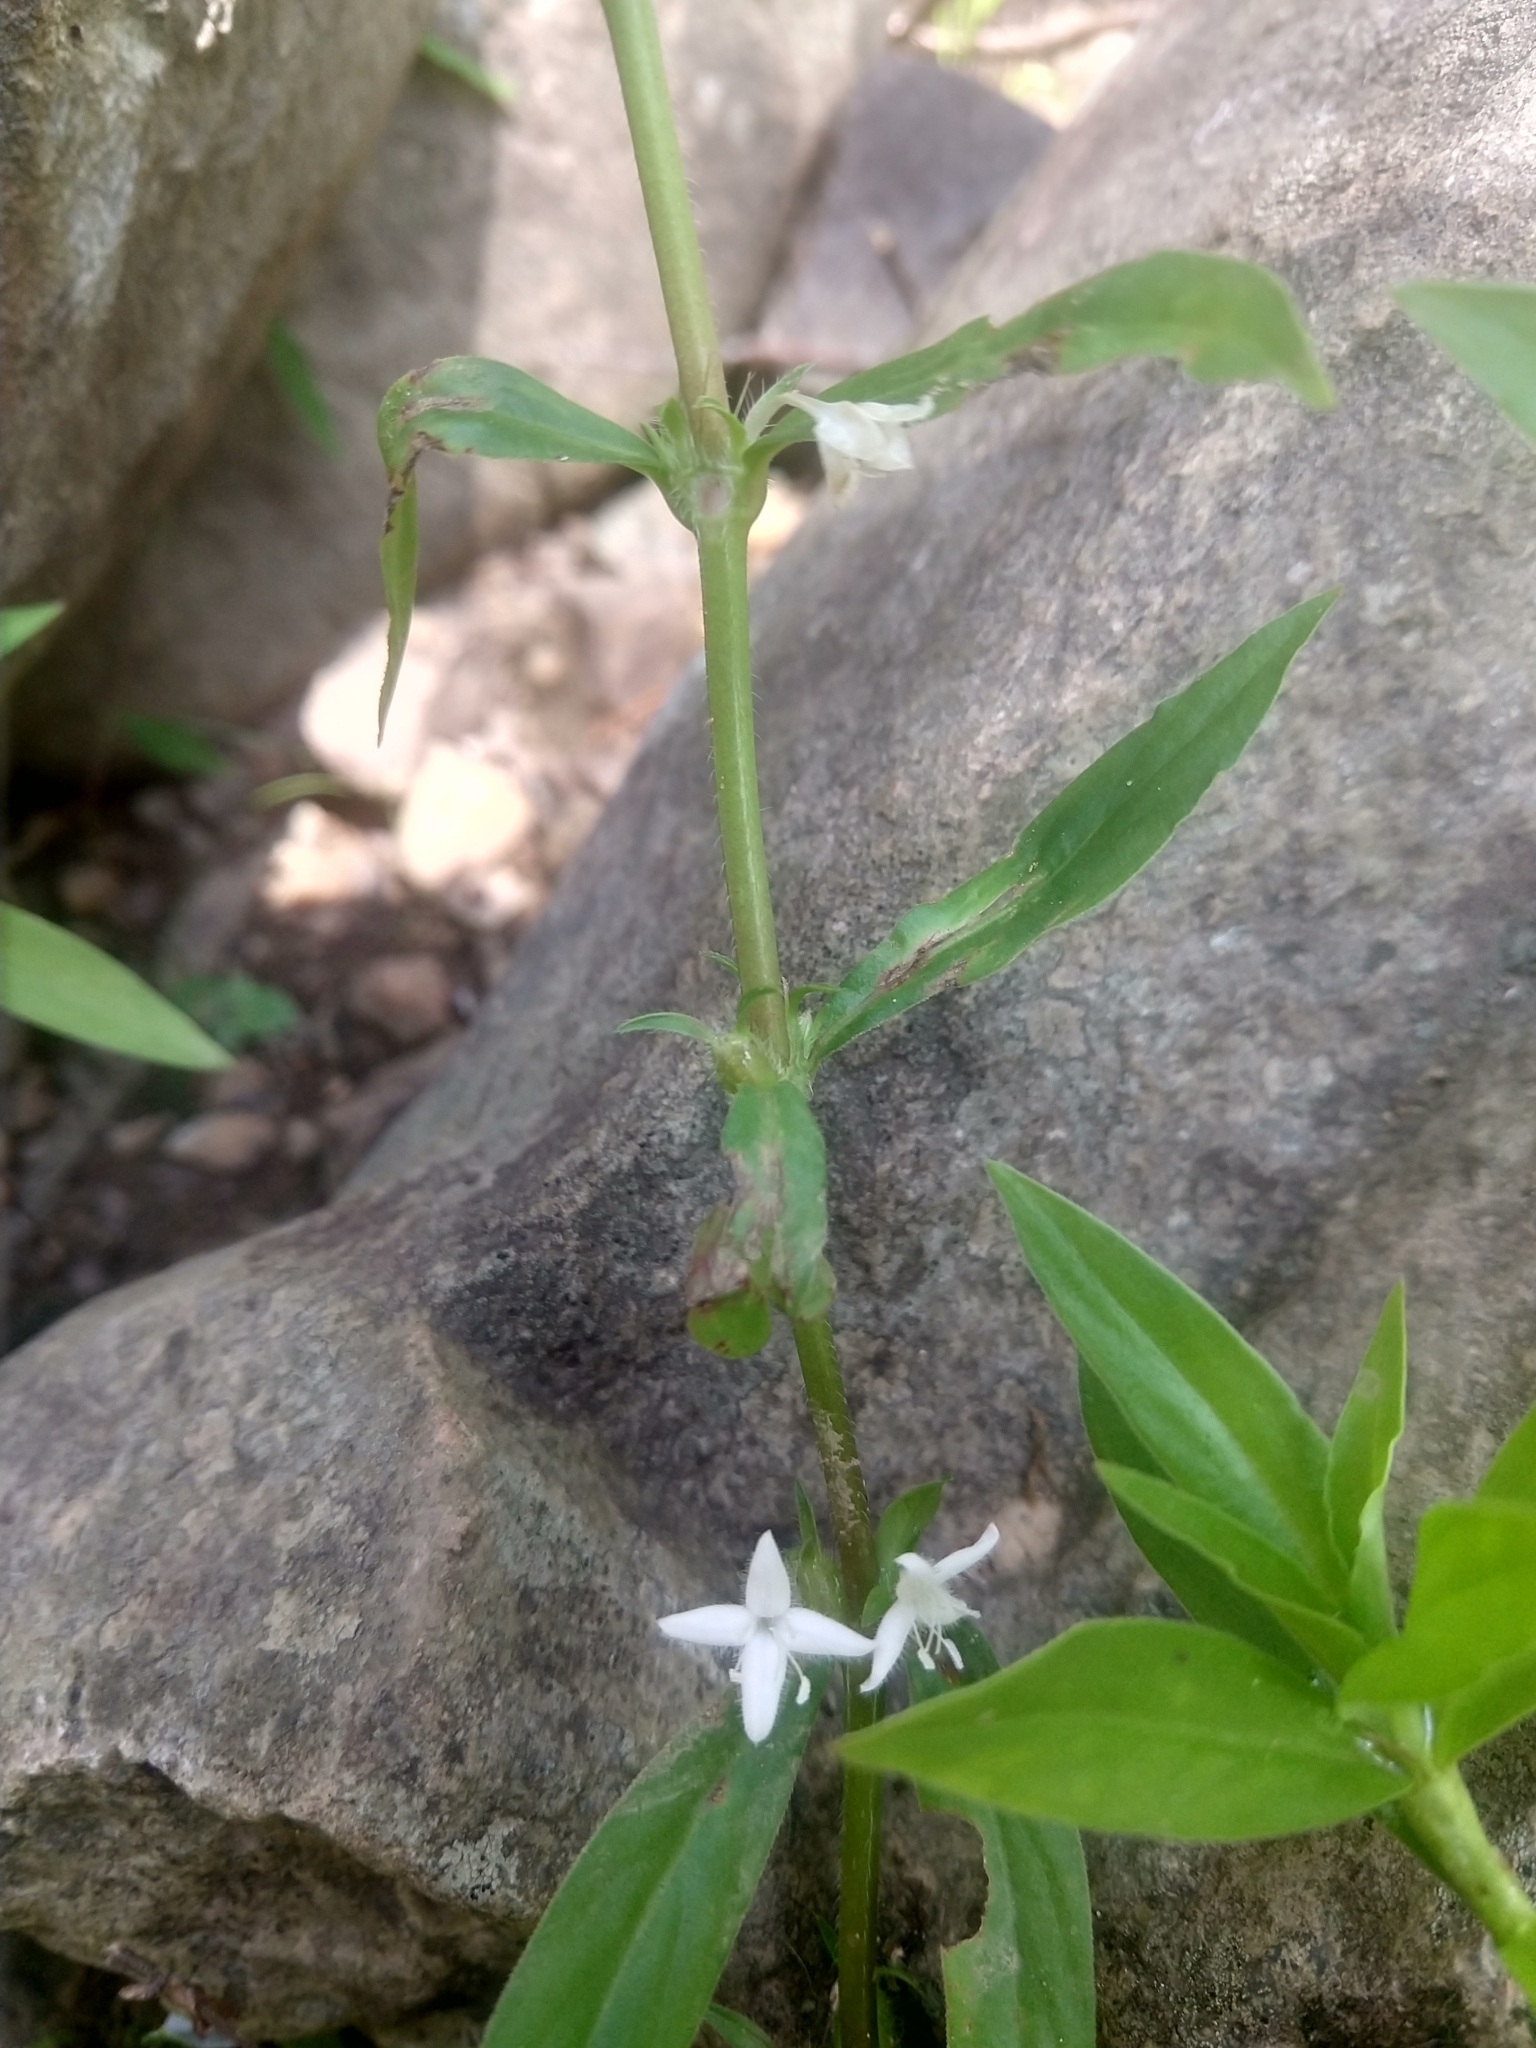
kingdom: Plantae
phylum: Tracheophyta
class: Magnoliopsida
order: Gentianales
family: Rubiaceae
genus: Diodia
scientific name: Diodia virginiana
